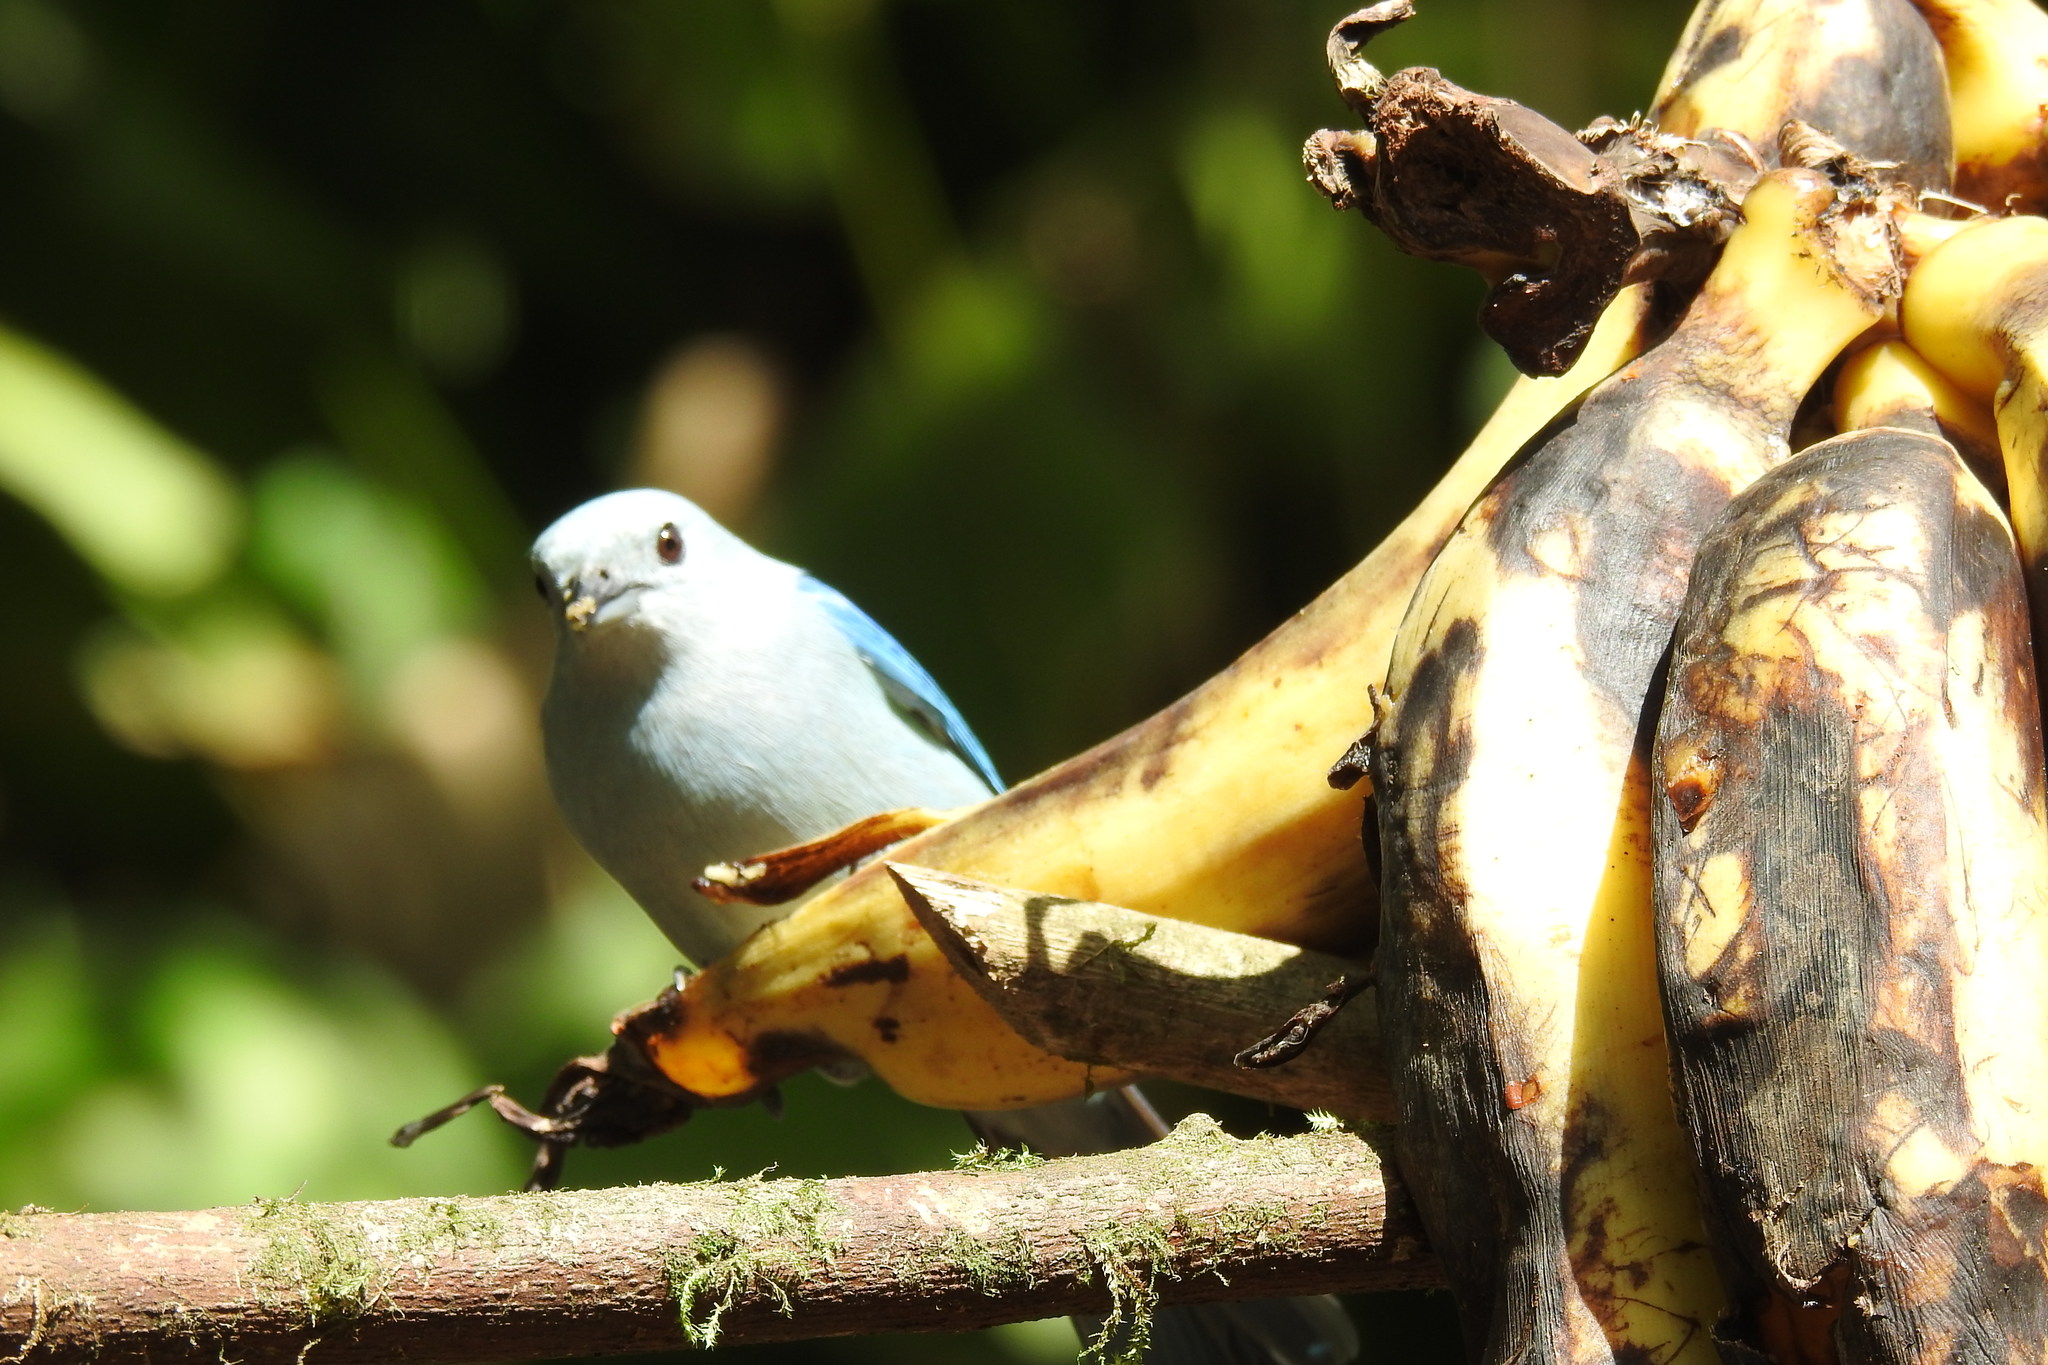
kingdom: Animalia
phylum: Chordata
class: Aves
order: Passeriformes
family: Thraupidae
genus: Thraupis
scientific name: Thraupis episcopus
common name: Blue-grey tanager
